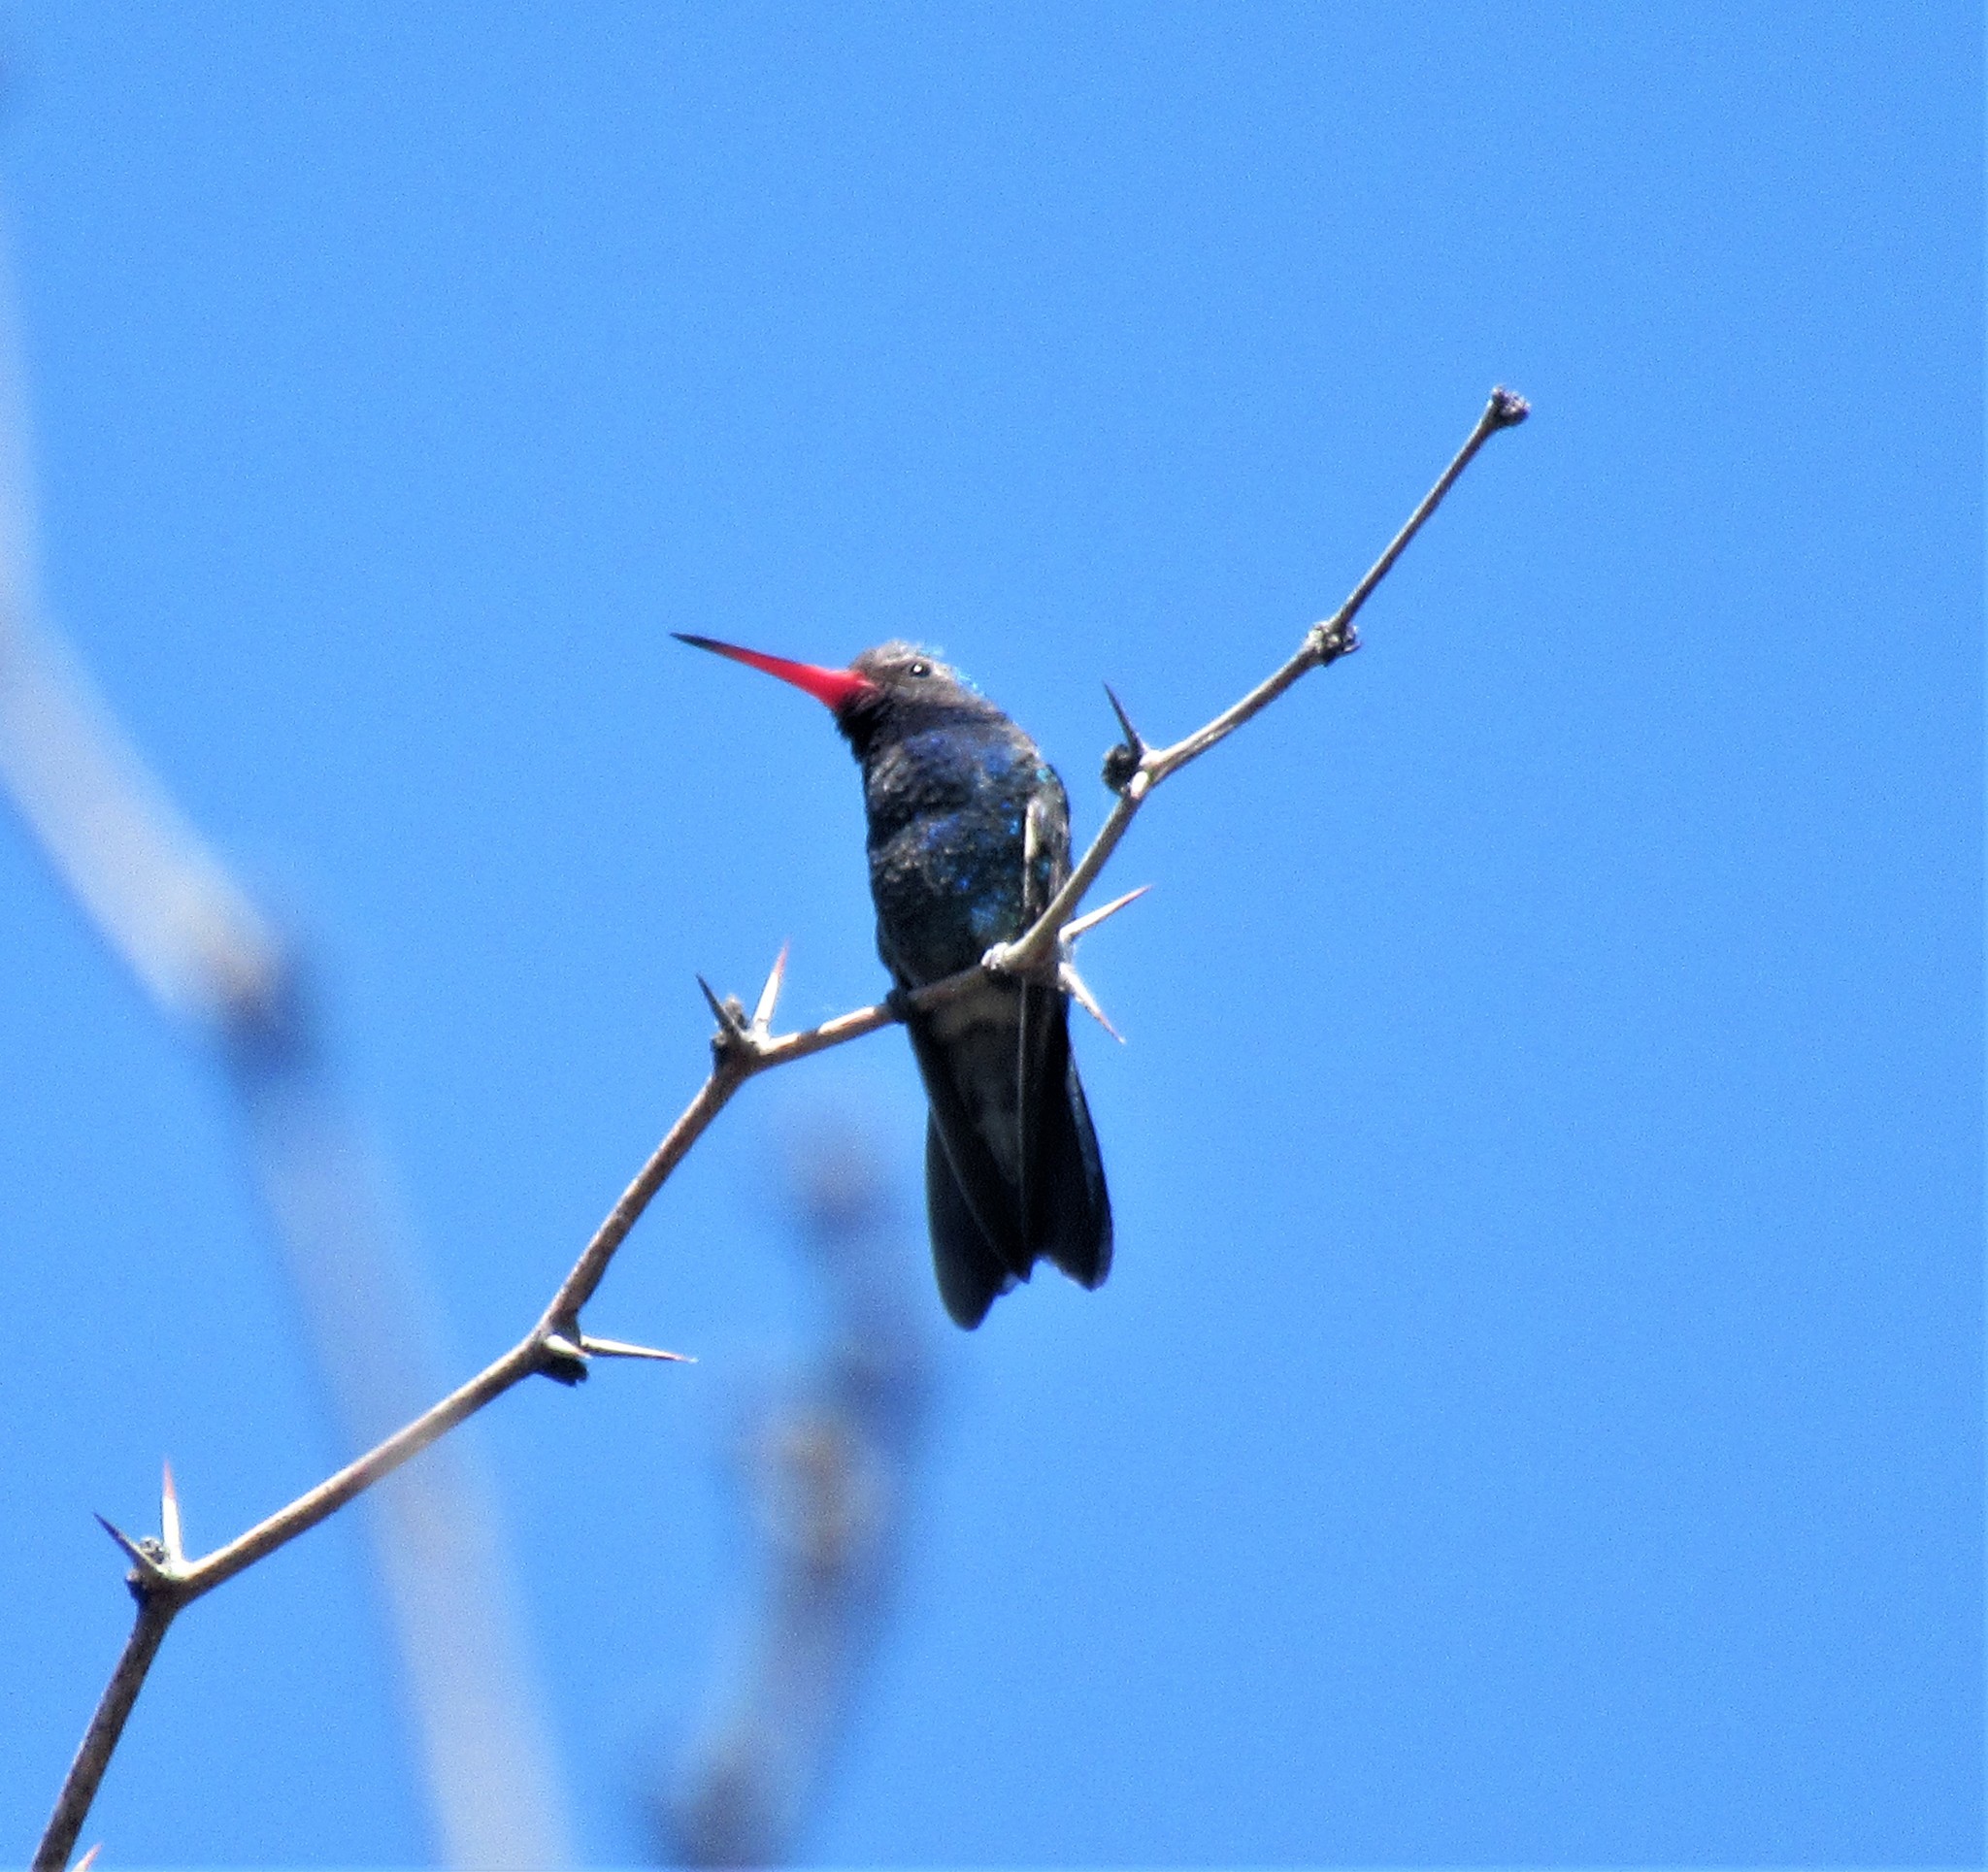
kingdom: Animalia
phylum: Chordata
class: Aves
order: Apodiformes
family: Trochilidae
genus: Cynanthus
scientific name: Cynanthus latirostris
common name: Broad-billed hummingbird
